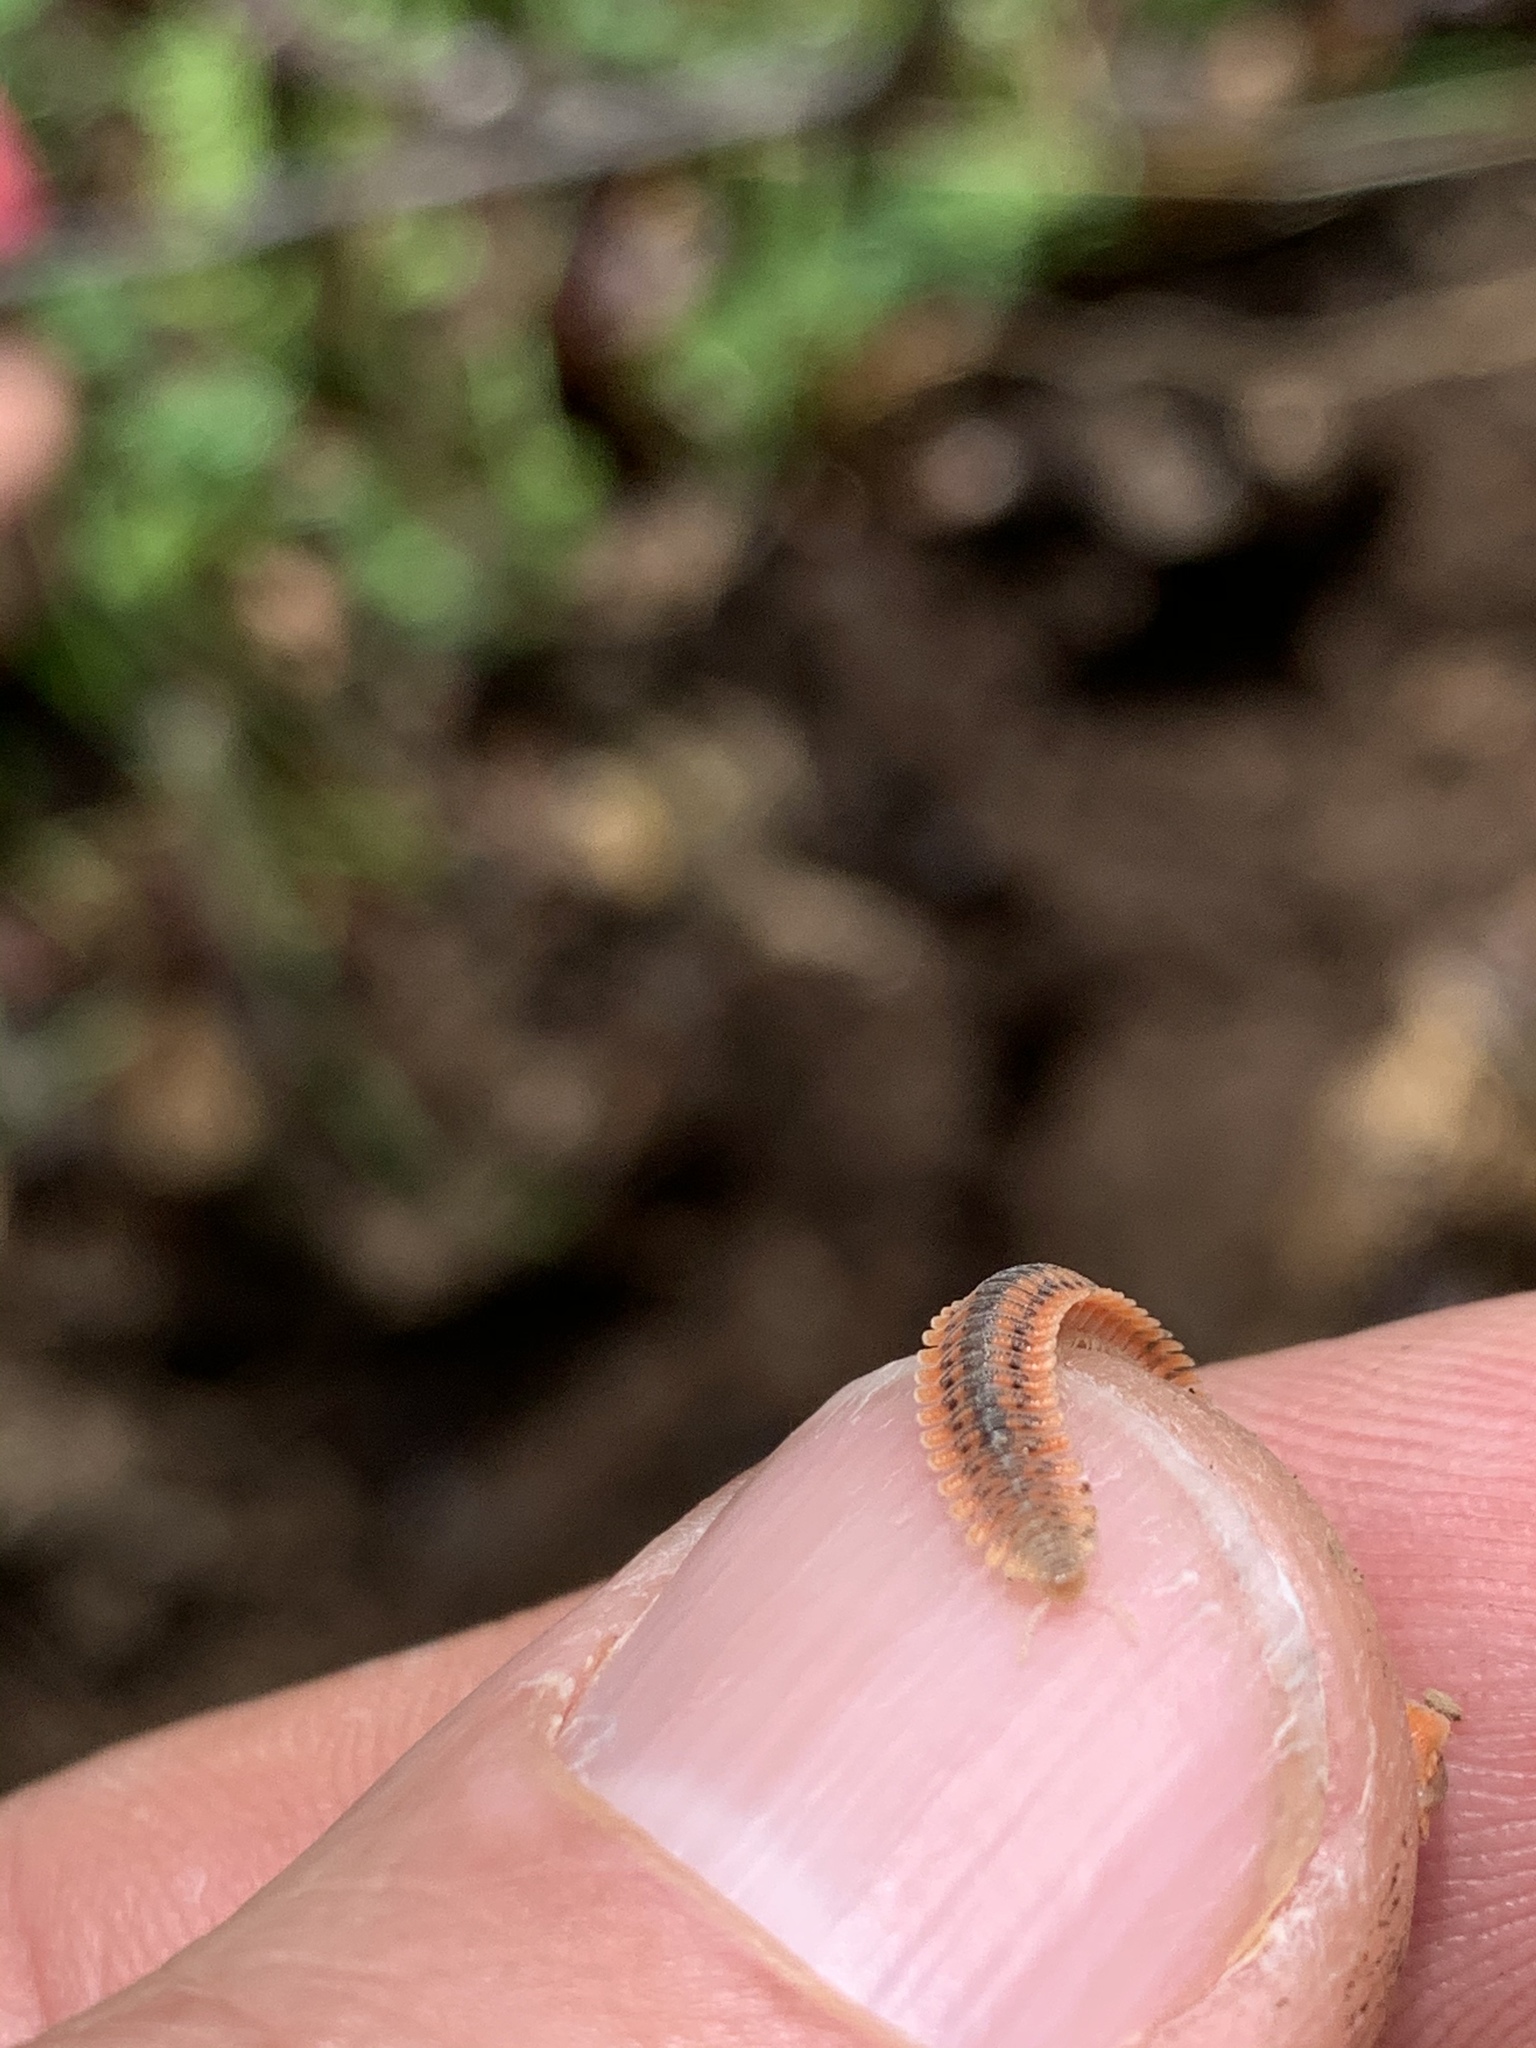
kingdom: Animalia
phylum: Arthropoda
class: Diplopoda
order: Platydesmida
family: Andrognathidae
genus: Brachycybe
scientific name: Brachycybe producta
